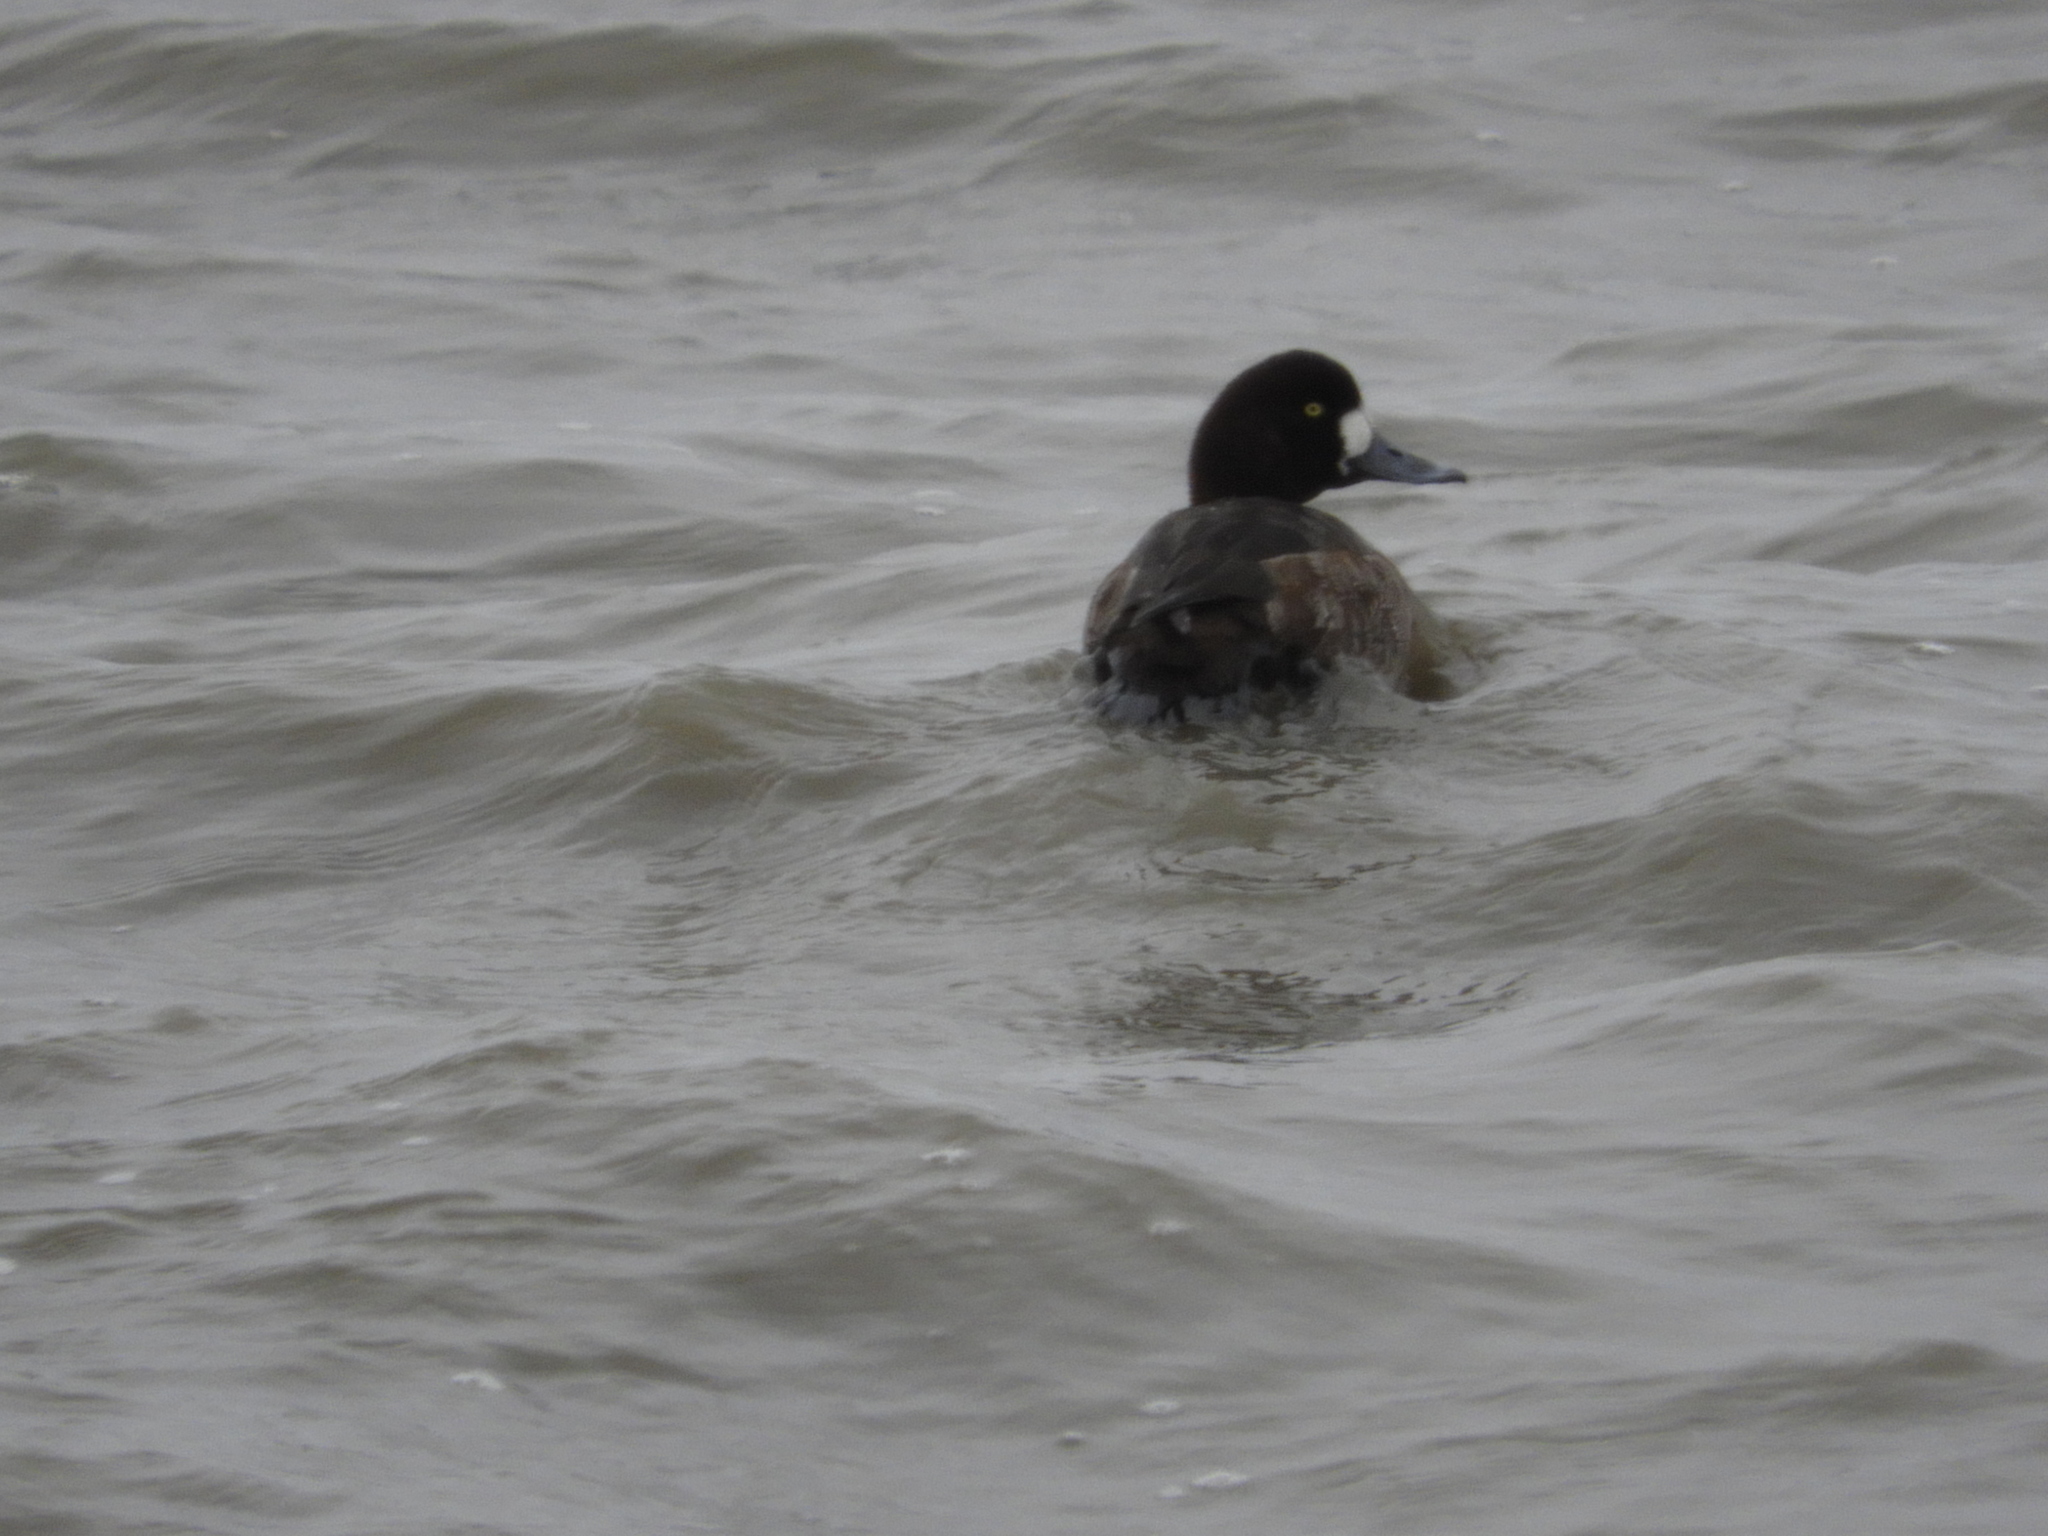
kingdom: Animalia
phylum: Chordata
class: Aves
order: Anseriformes
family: Anatidae
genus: Aythya
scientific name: Aythya marila
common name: Greater scaup
